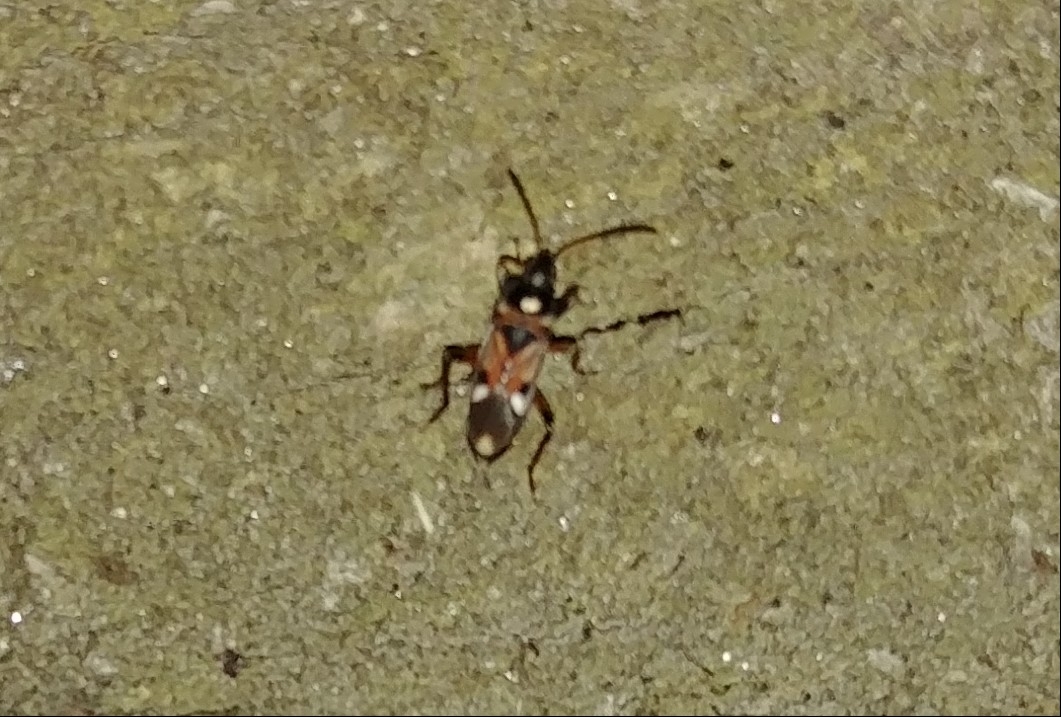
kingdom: Animalia
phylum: Arthropoda
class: Insecta
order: Hemiptera
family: Rhyparochromidae
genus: Raglius
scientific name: Raglius alboacuminatus
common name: Dirt-colored seed bug
